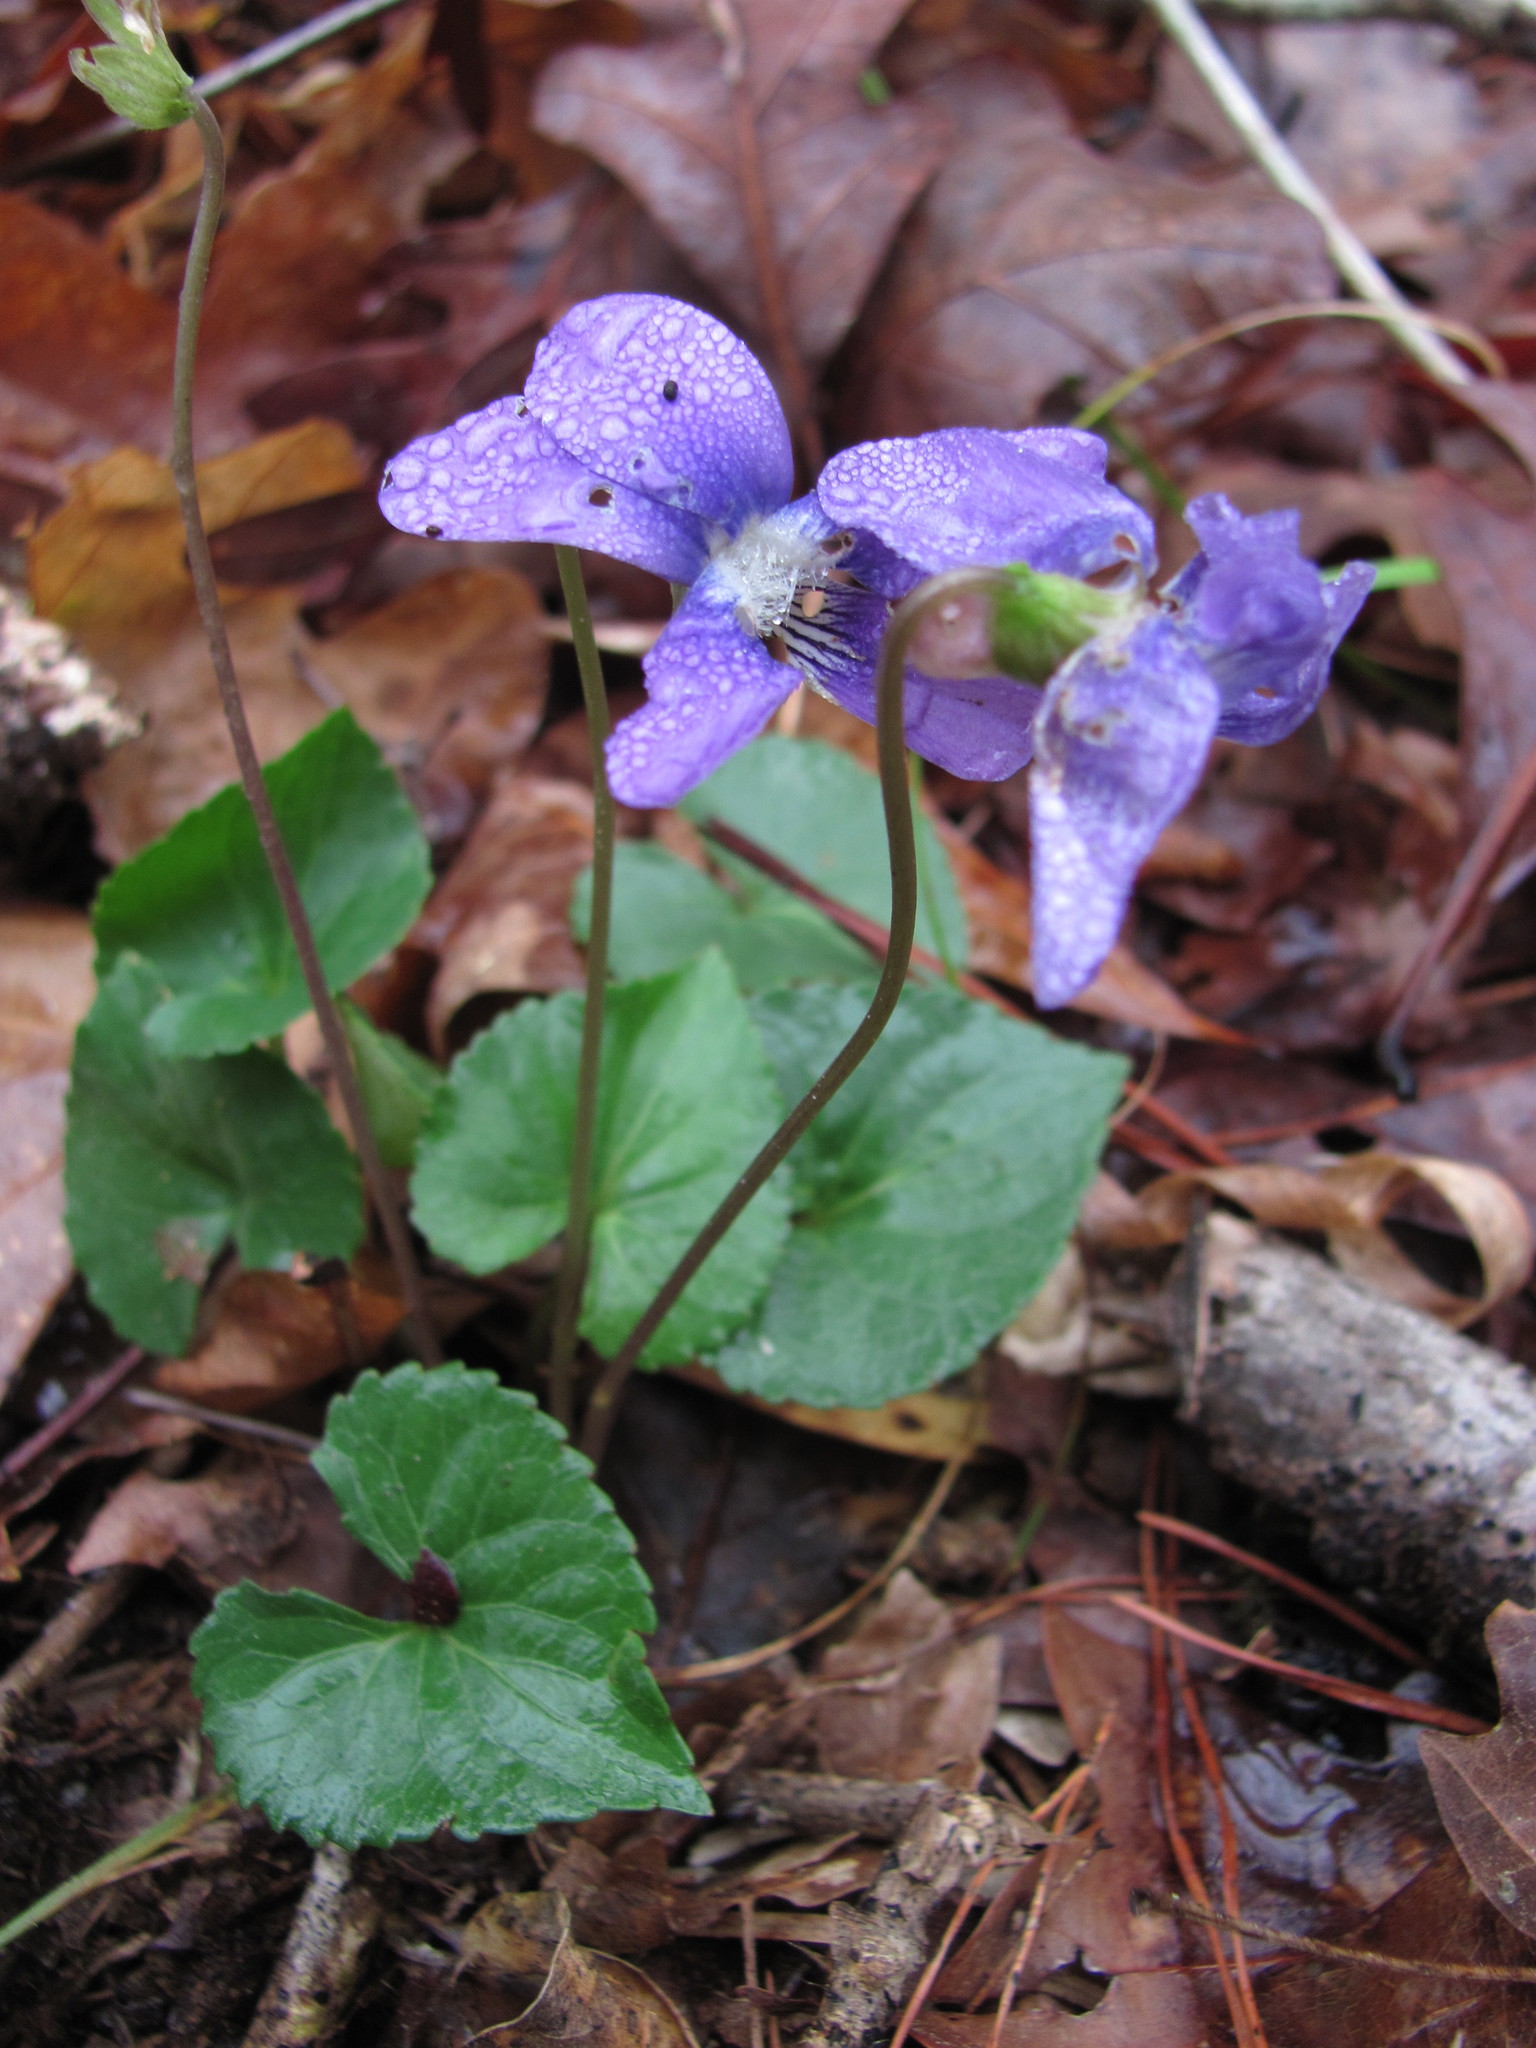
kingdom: Plantae
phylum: Tracheophyta
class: Magnoliopsida
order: Malpighiales
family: Violaceae
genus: Viola
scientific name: Viola sororia
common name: Dooryard violet
